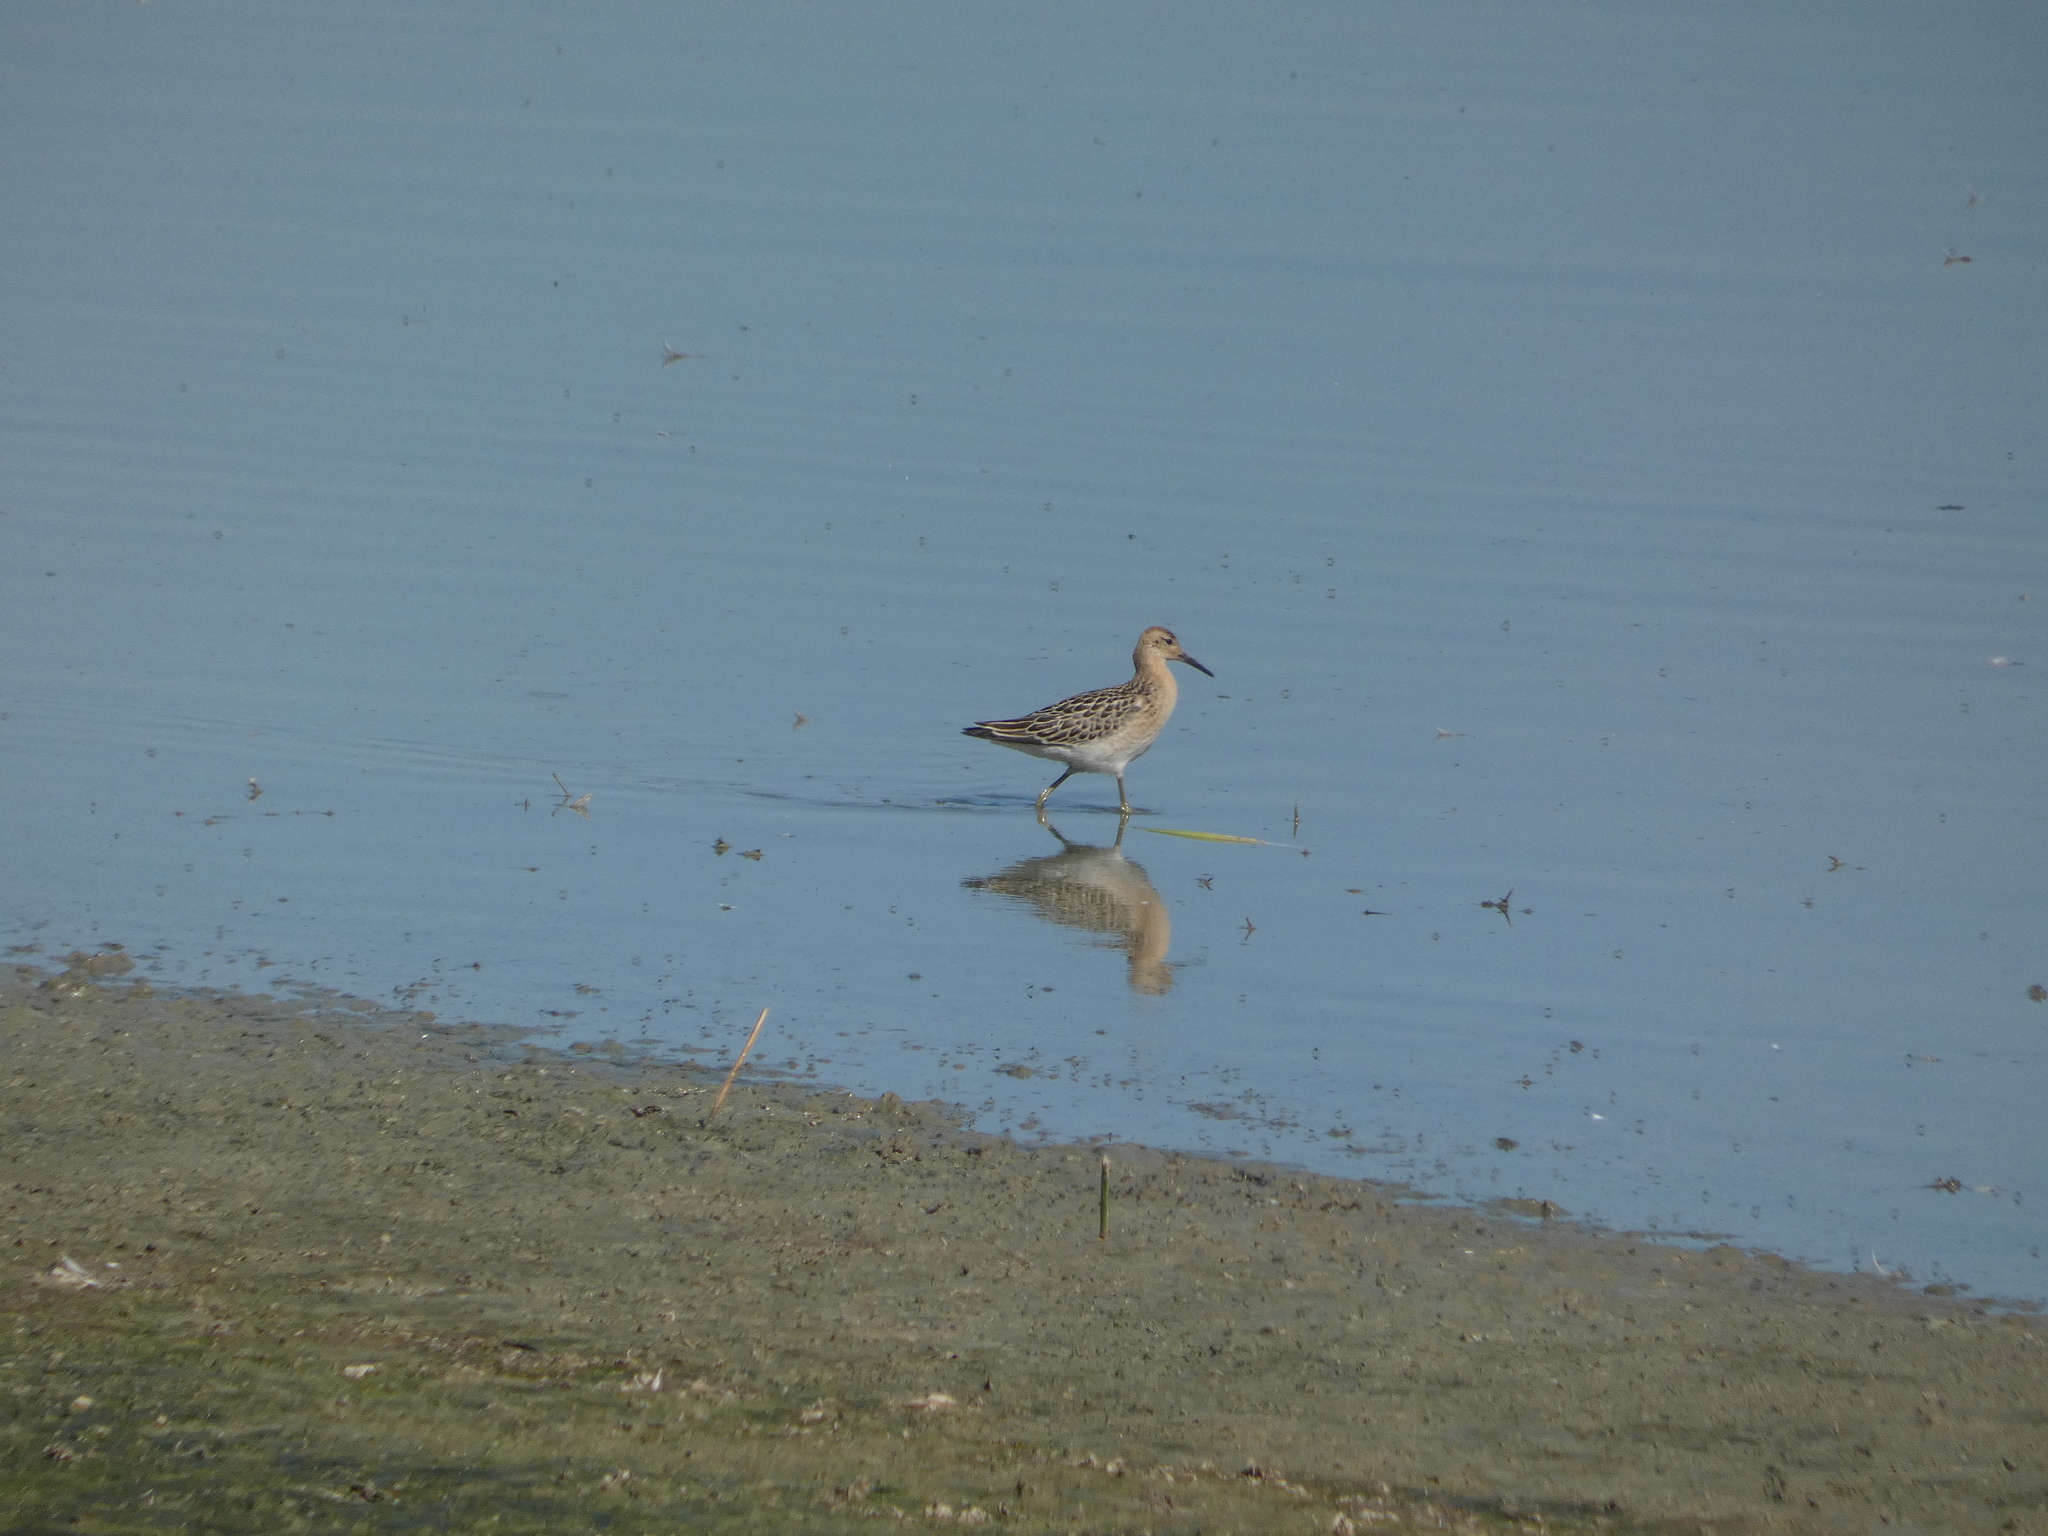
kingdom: Animalia
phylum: Chordata
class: Aves
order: Charadriiformes
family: Scolopacidae
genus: Calidris
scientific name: Calidris pugnax
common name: Ruff
